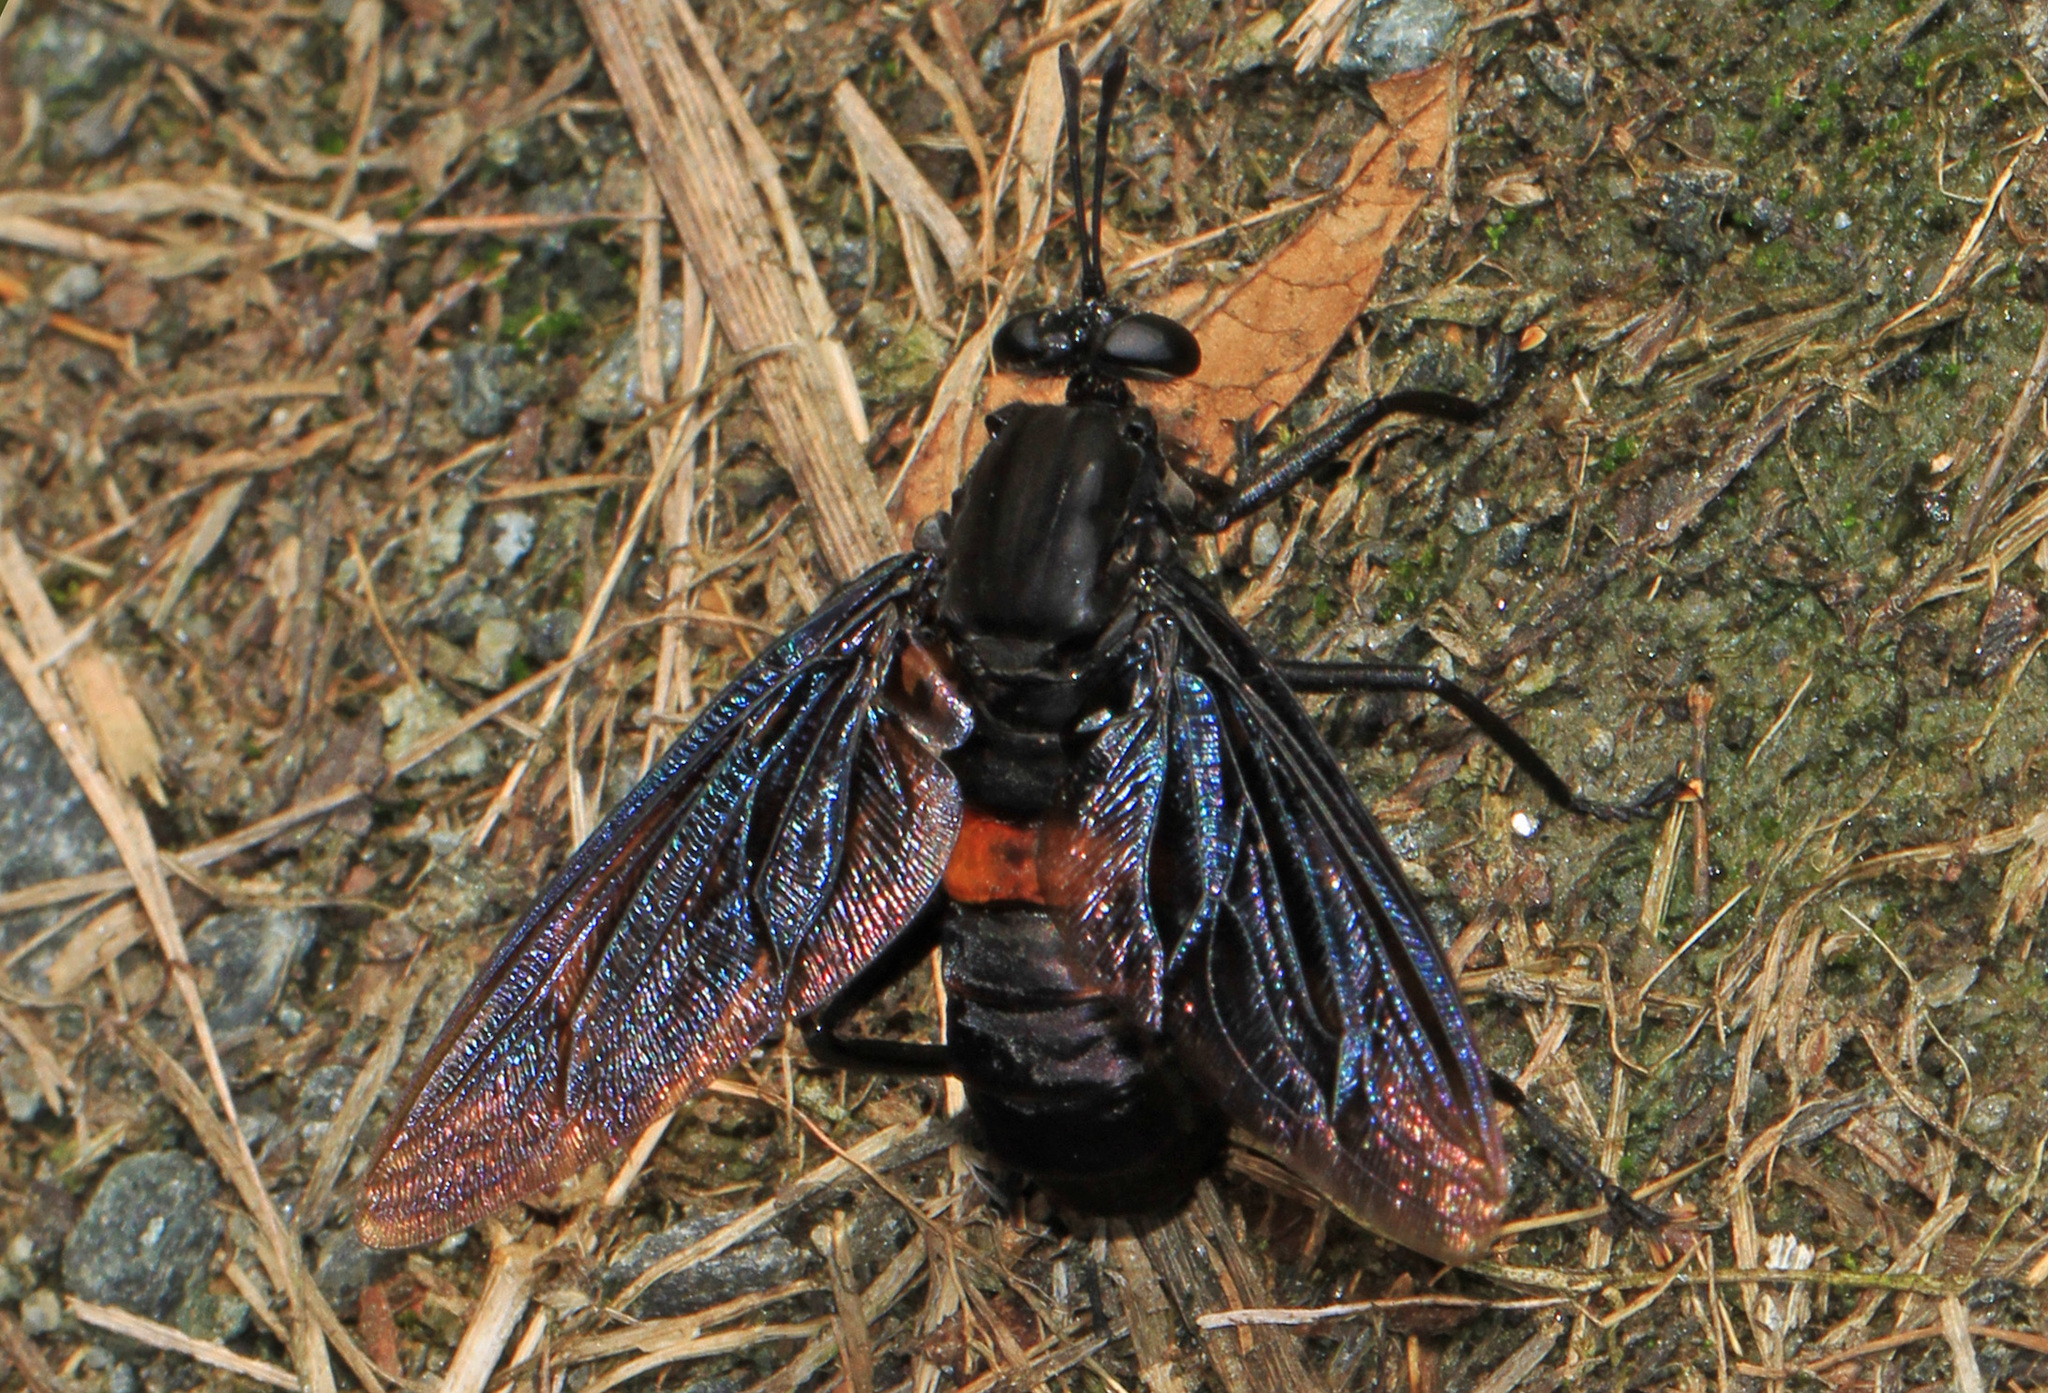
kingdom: Animalia
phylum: Arthropoda
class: Insecta
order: Diptera
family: Mydidae
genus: Mydas
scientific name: Mydas
